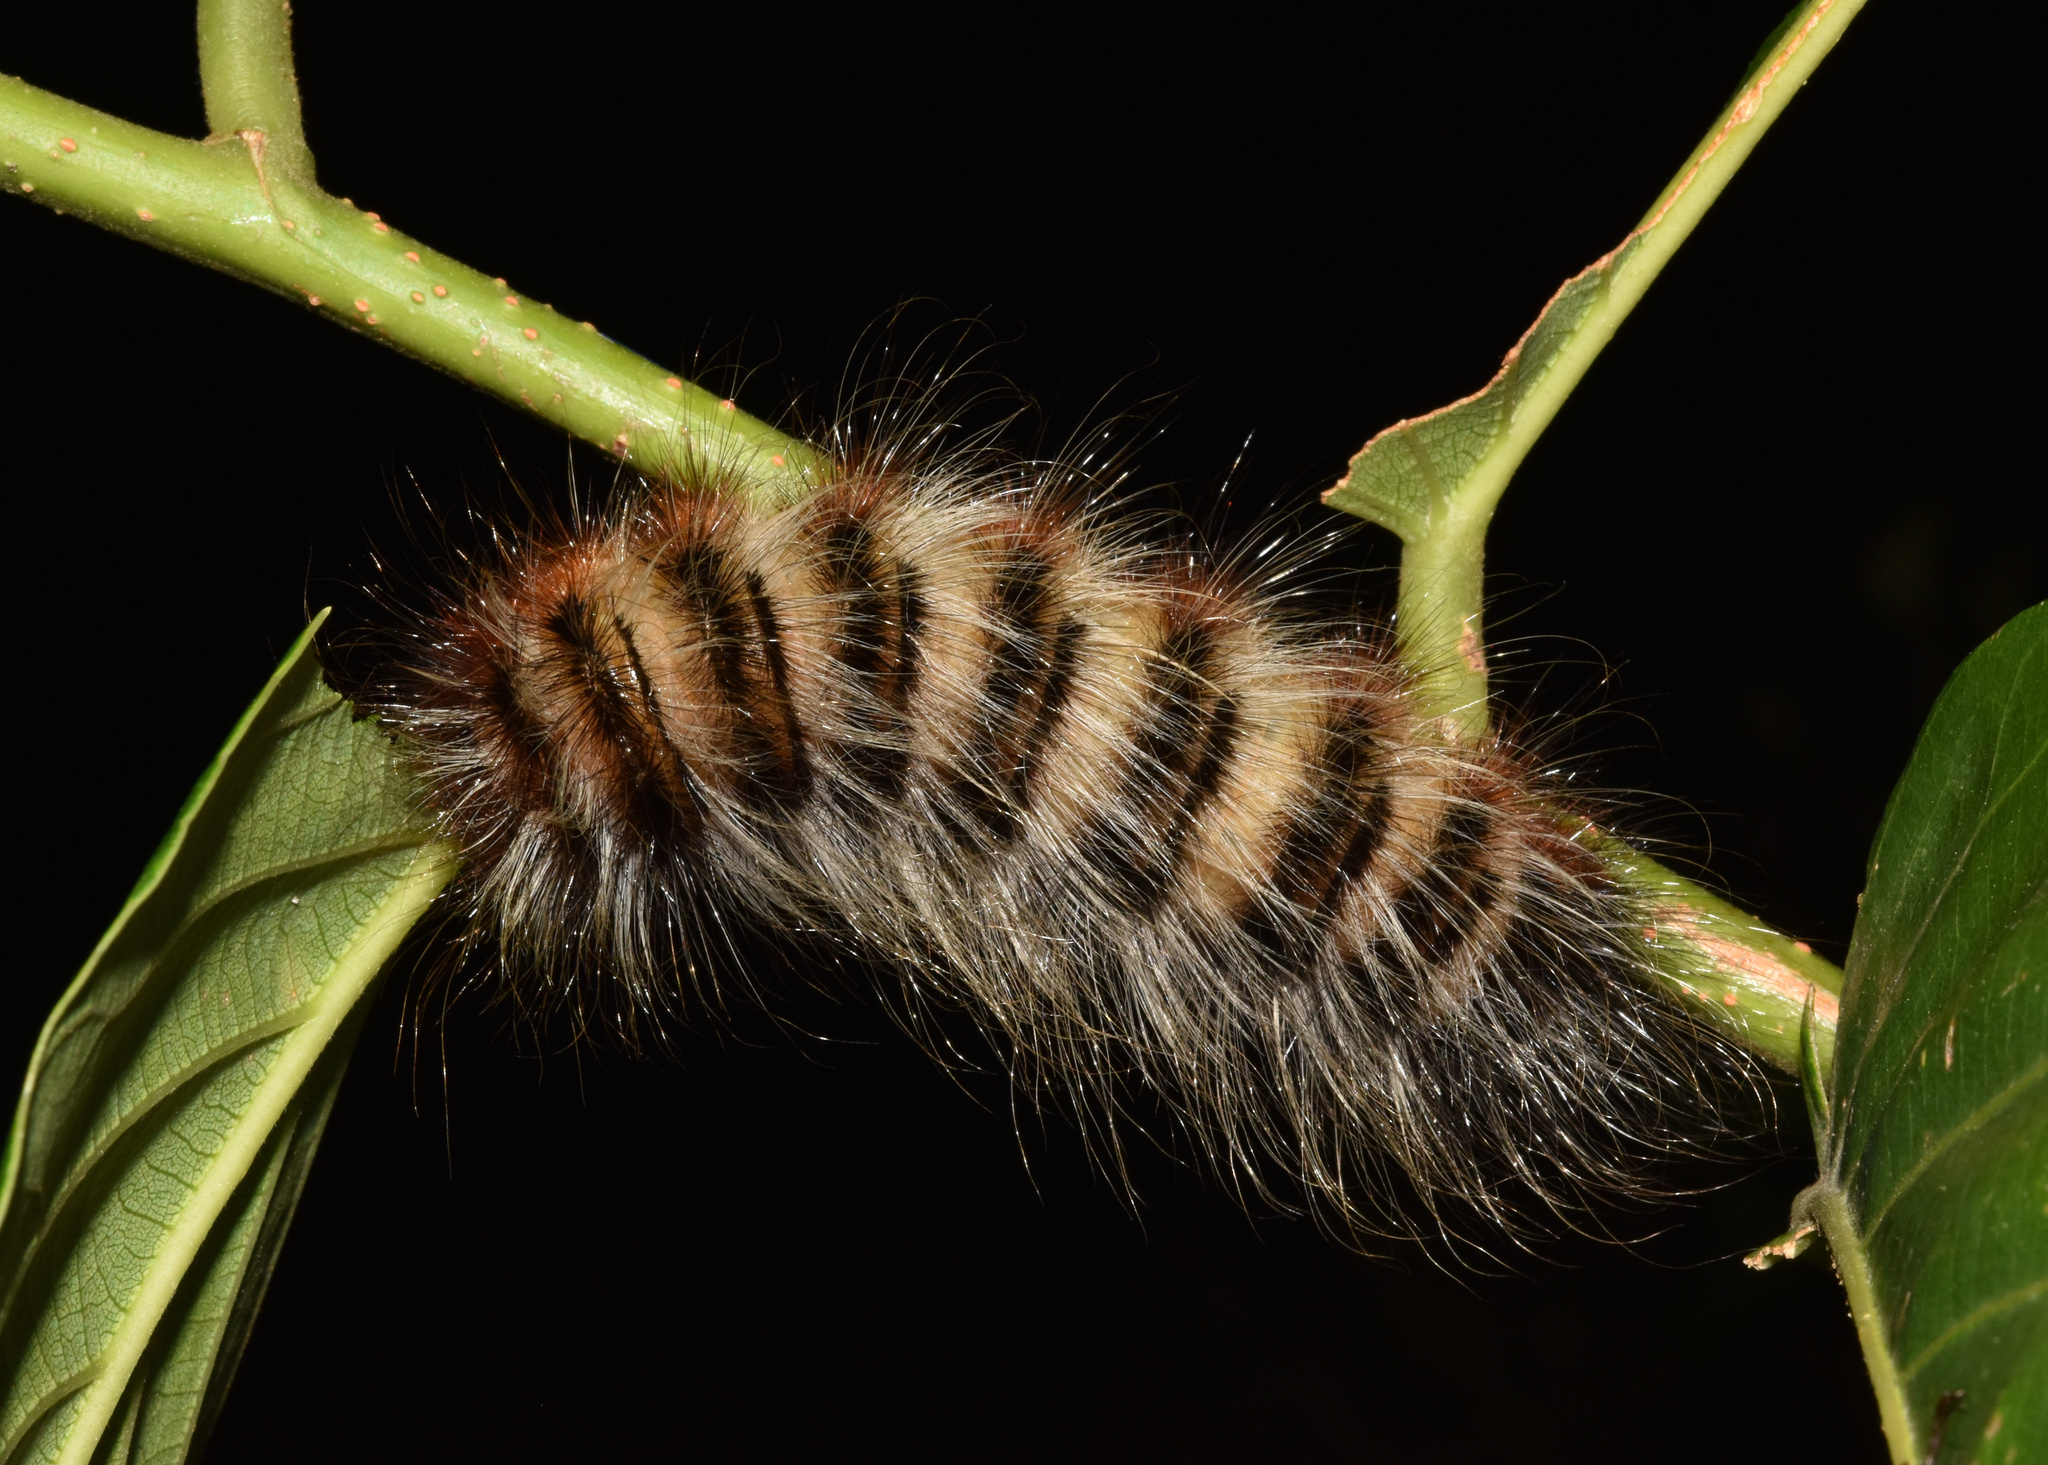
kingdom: Animalia
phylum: Arthropoda
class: Insecta
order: Lepidoptera
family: Eupterotidae
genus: Striphnopteryx
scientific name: Striphnopteryx edulis
